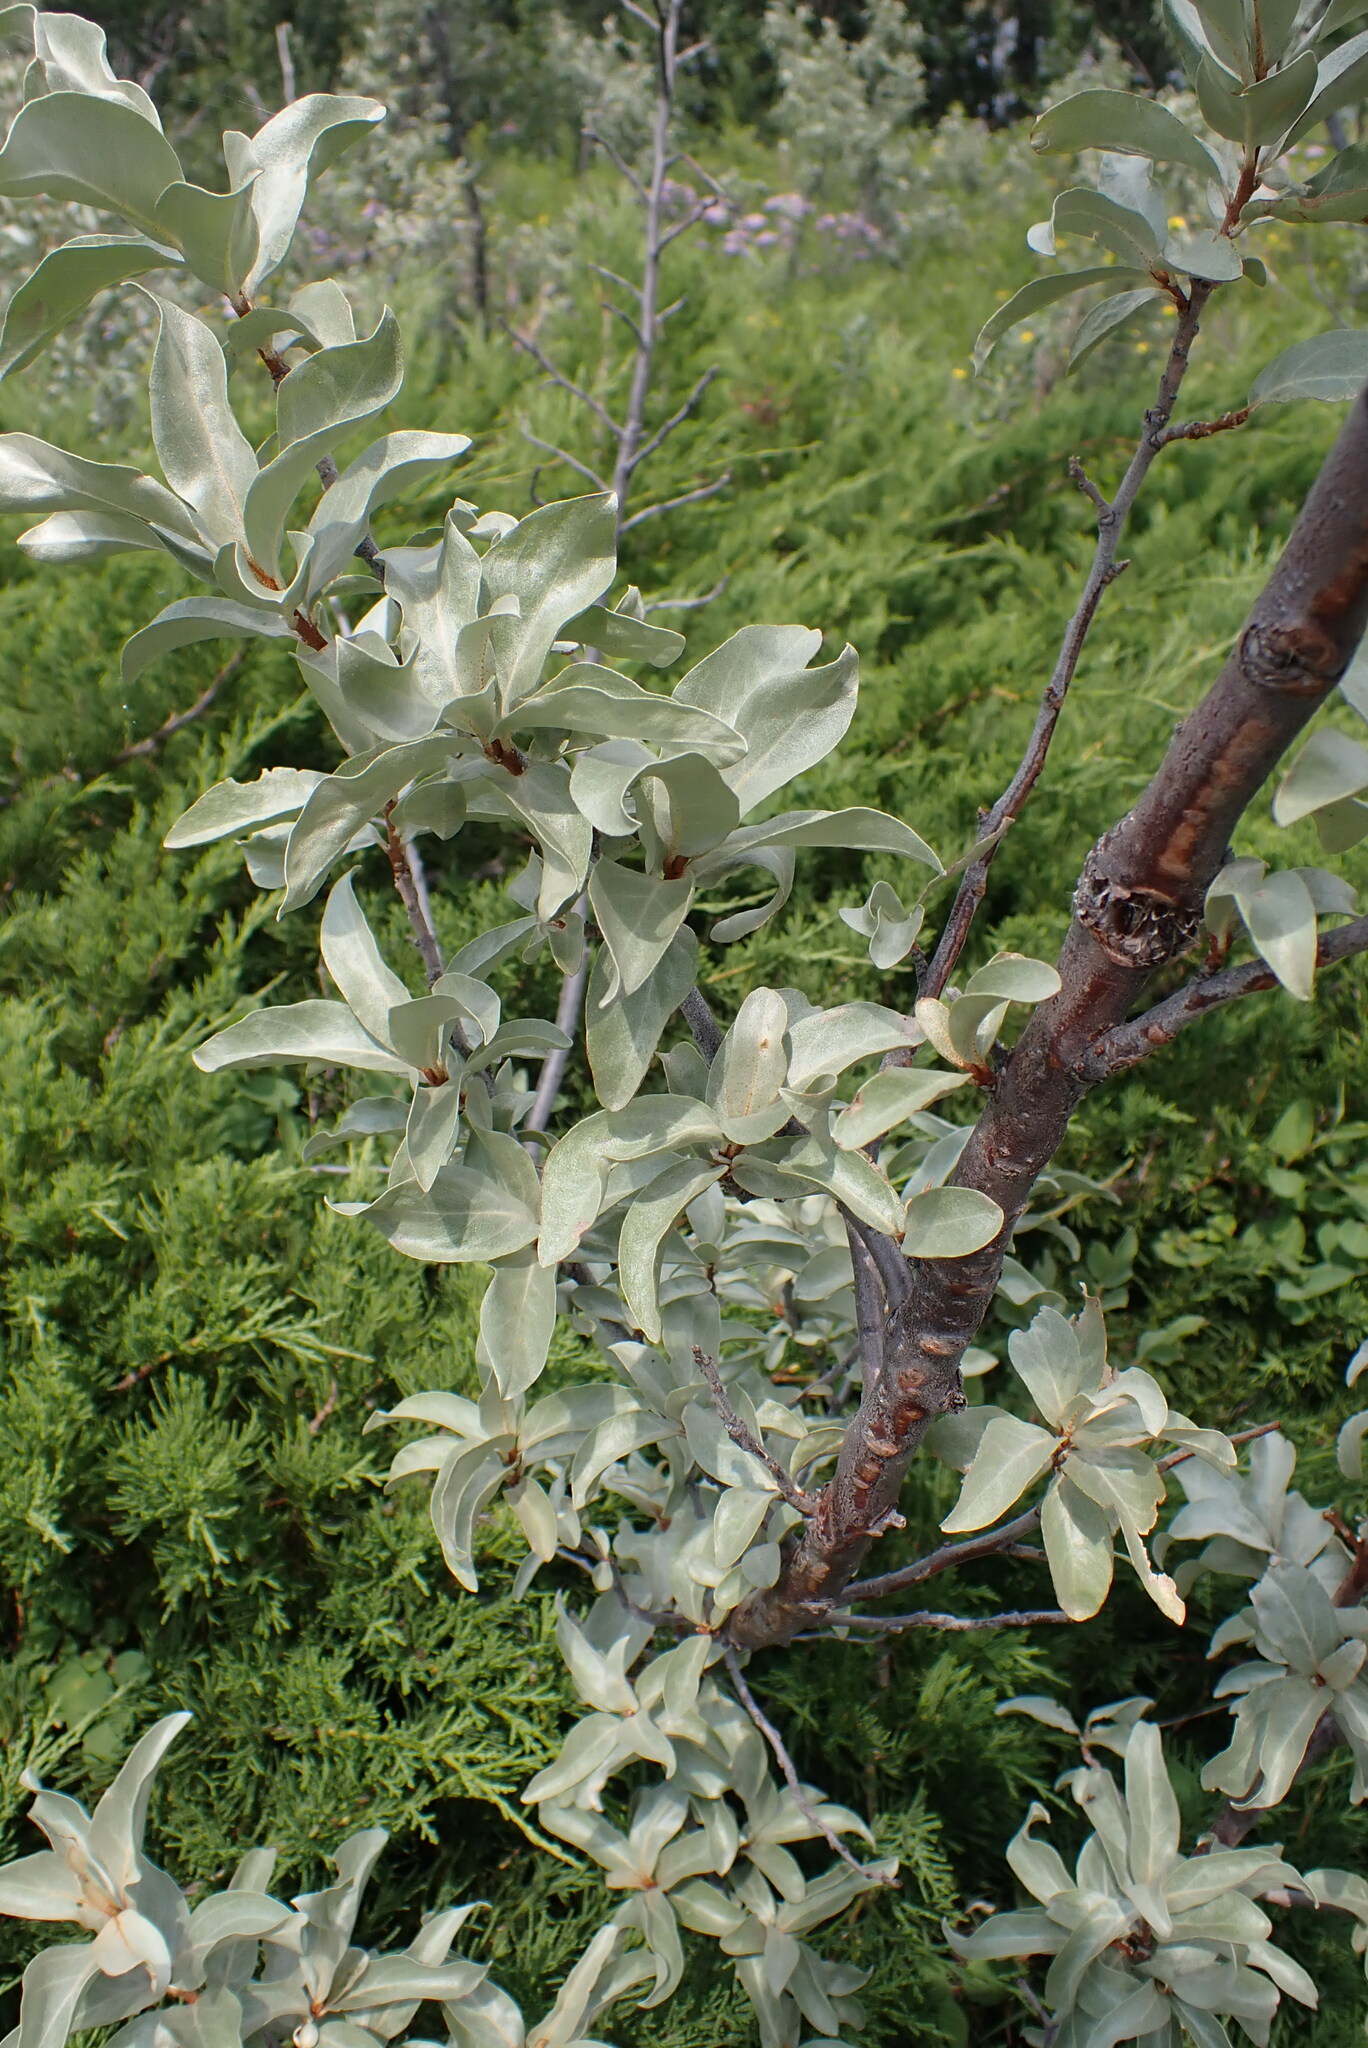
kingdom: Plantae
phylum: Tracheophyta
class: Magnoliopsida
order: Rosales
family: Elaeagnaceae
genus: Elaeagnus
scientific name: Elaeagnus commutata
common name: Silverberry
